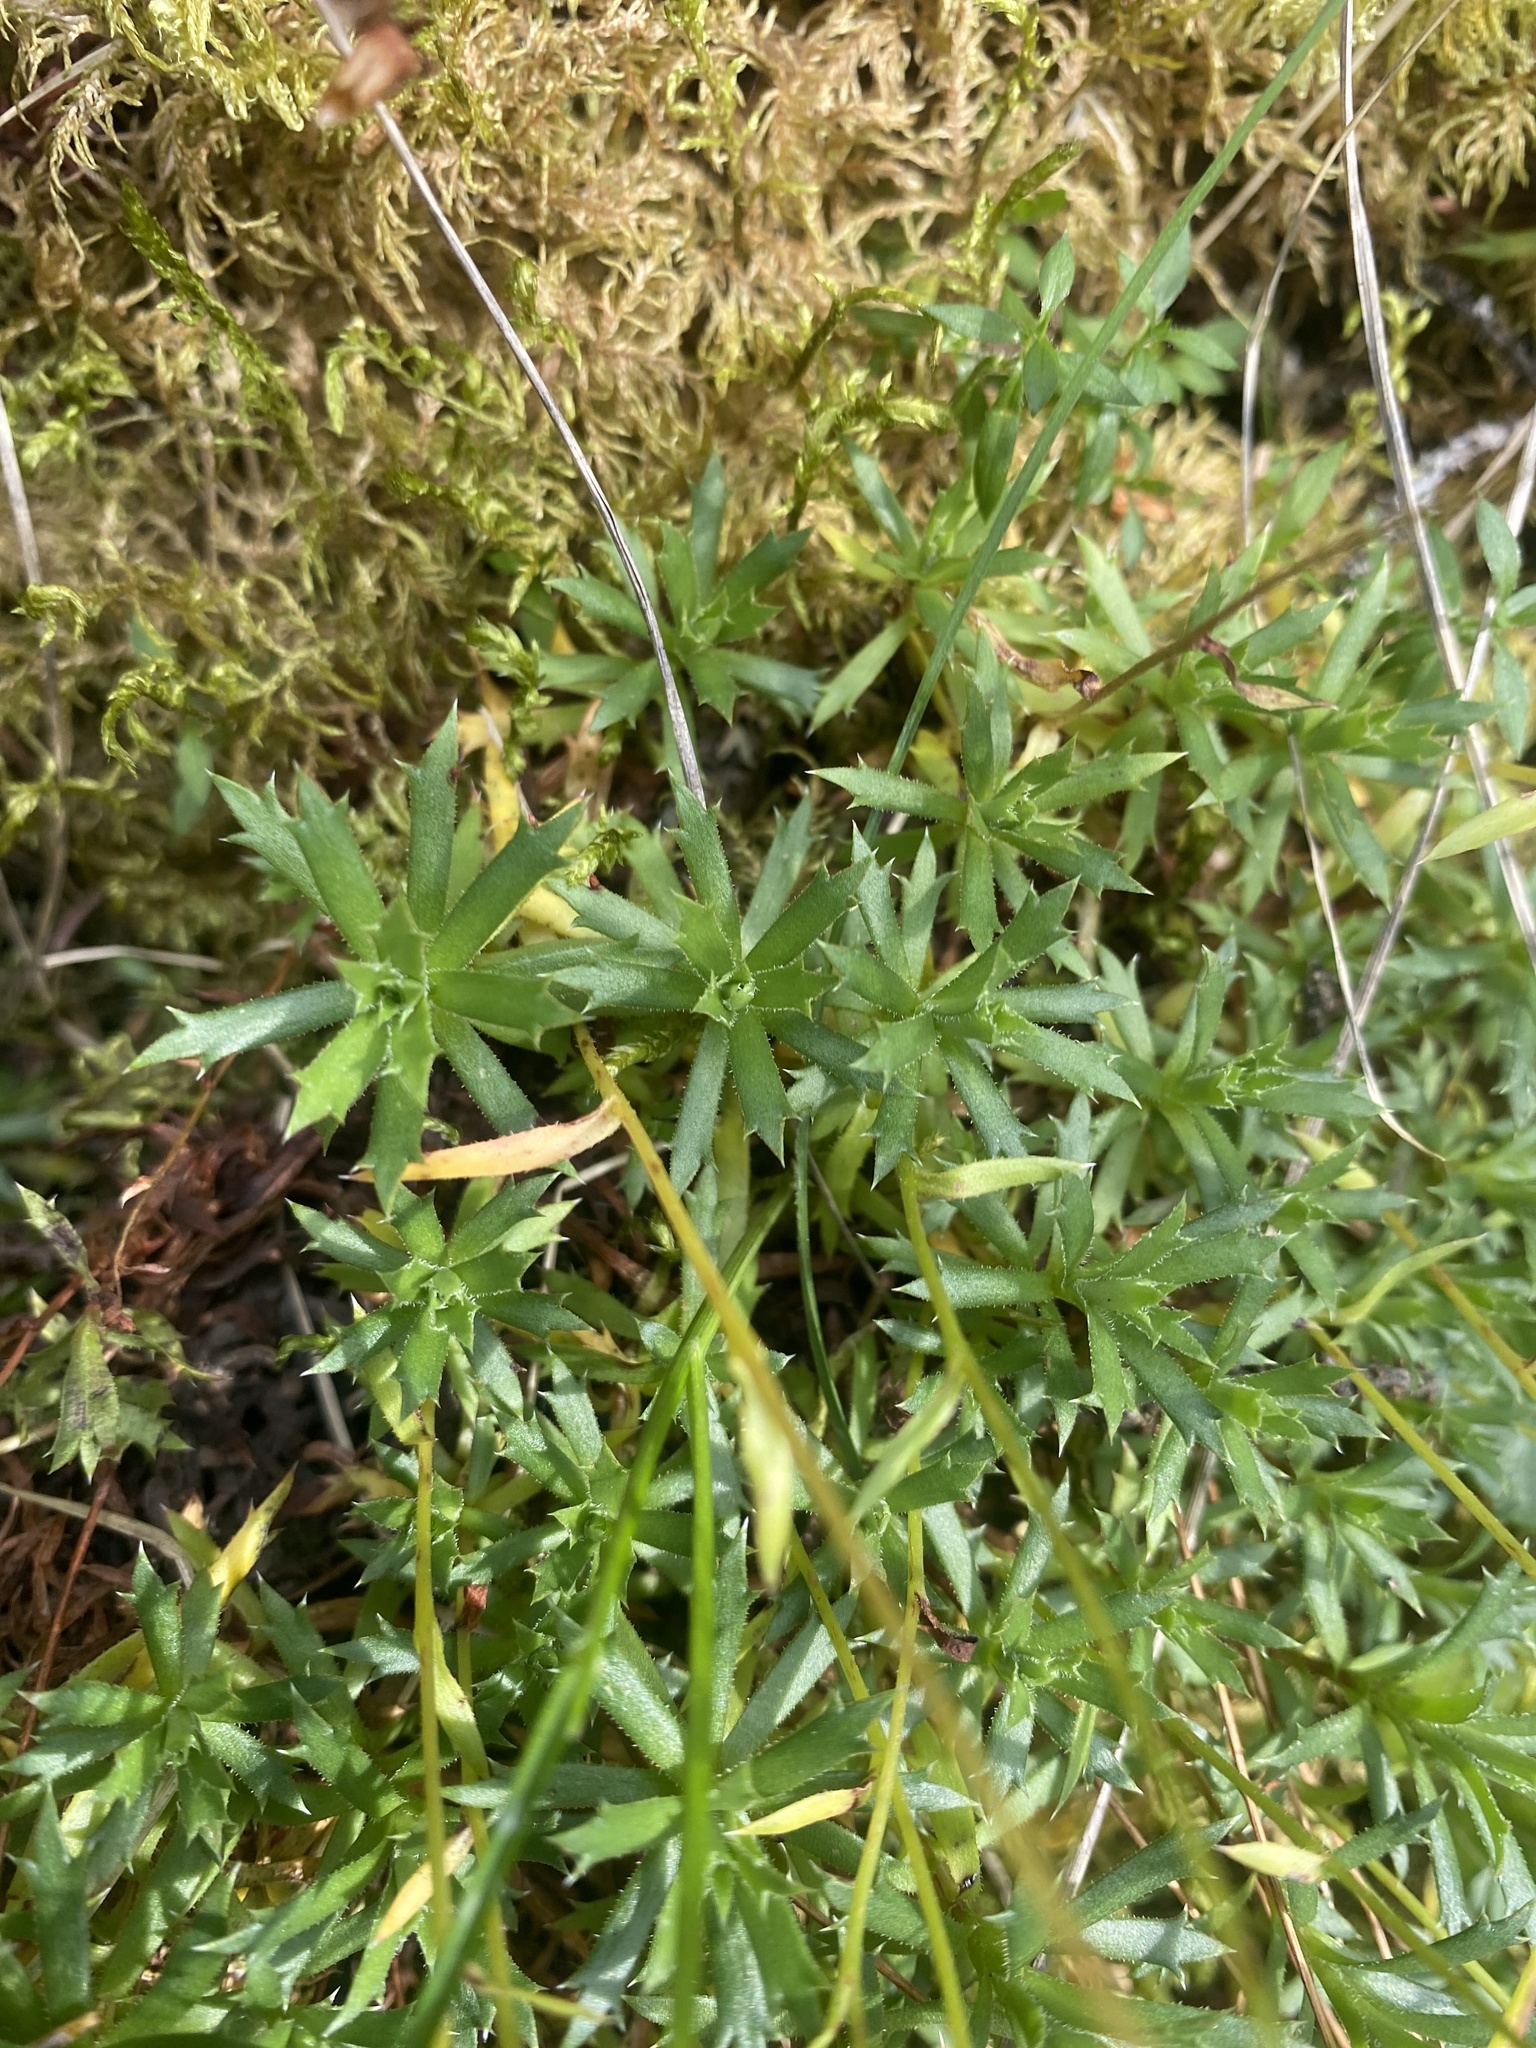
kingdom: Plantae
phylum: Tracheophyta
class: Magnoliopsida
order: Saxifragales
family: Saxifragaceae
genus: Saxifraga
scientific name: Saxifraga tricuspidata
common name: Prickly saxifrage
